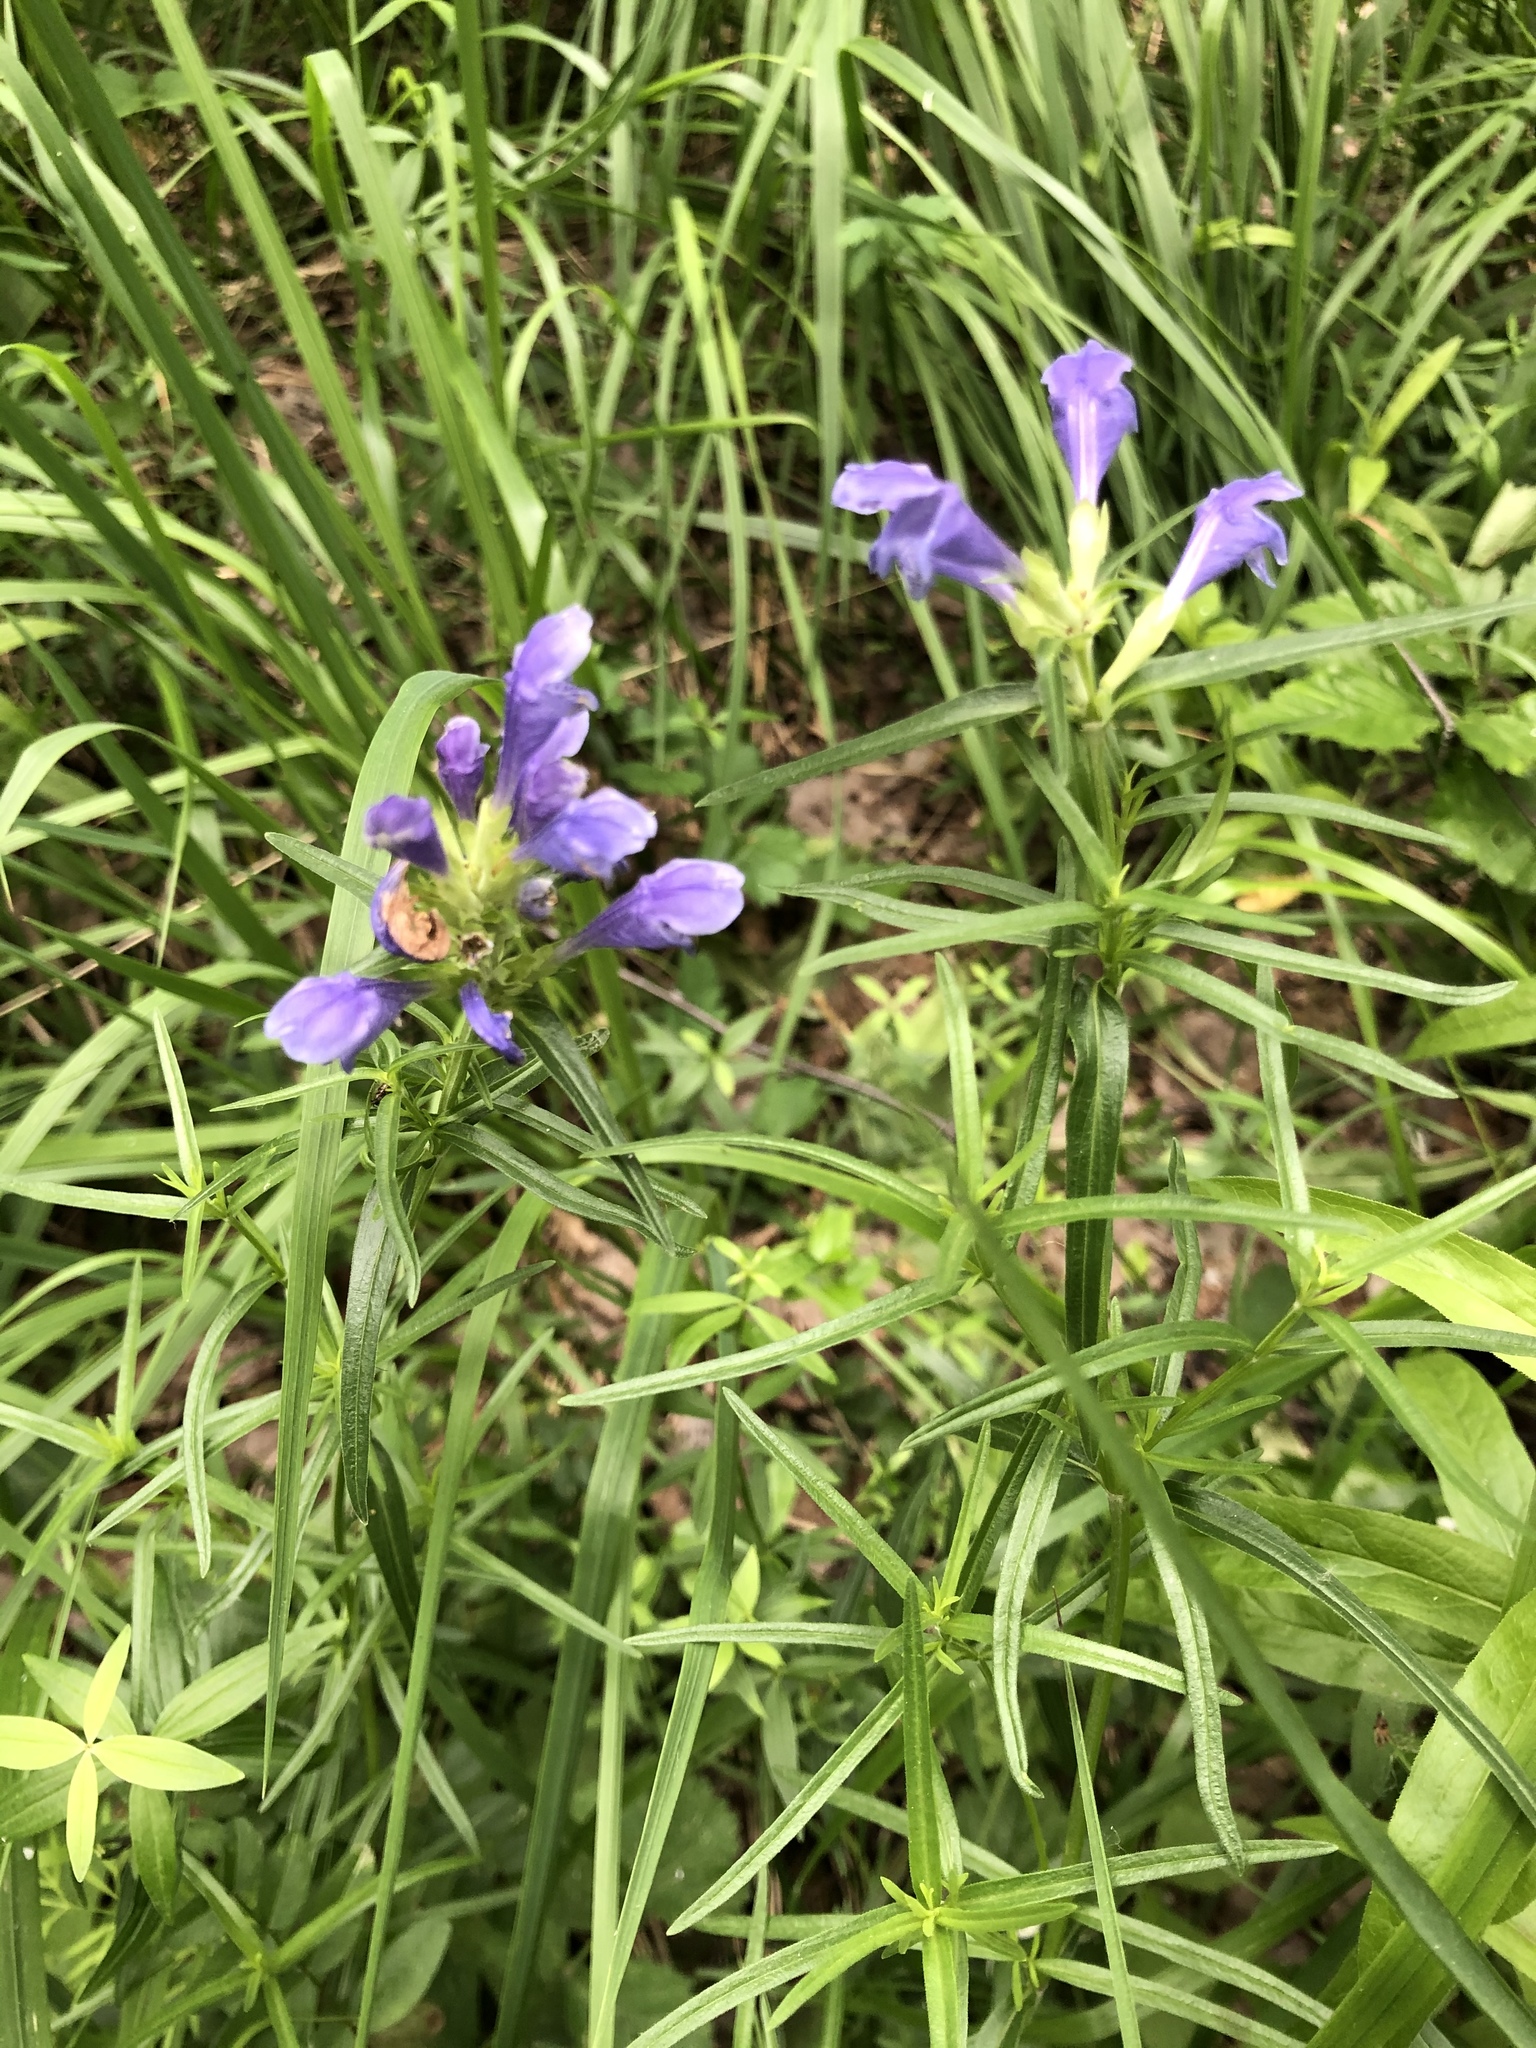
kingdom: Plantae
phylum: Tracheophyta
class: Magnoliopsida
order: Lamiales
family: Lamiaceae
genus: Dracocephalum
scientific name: Dracocephalum ruyschiana
